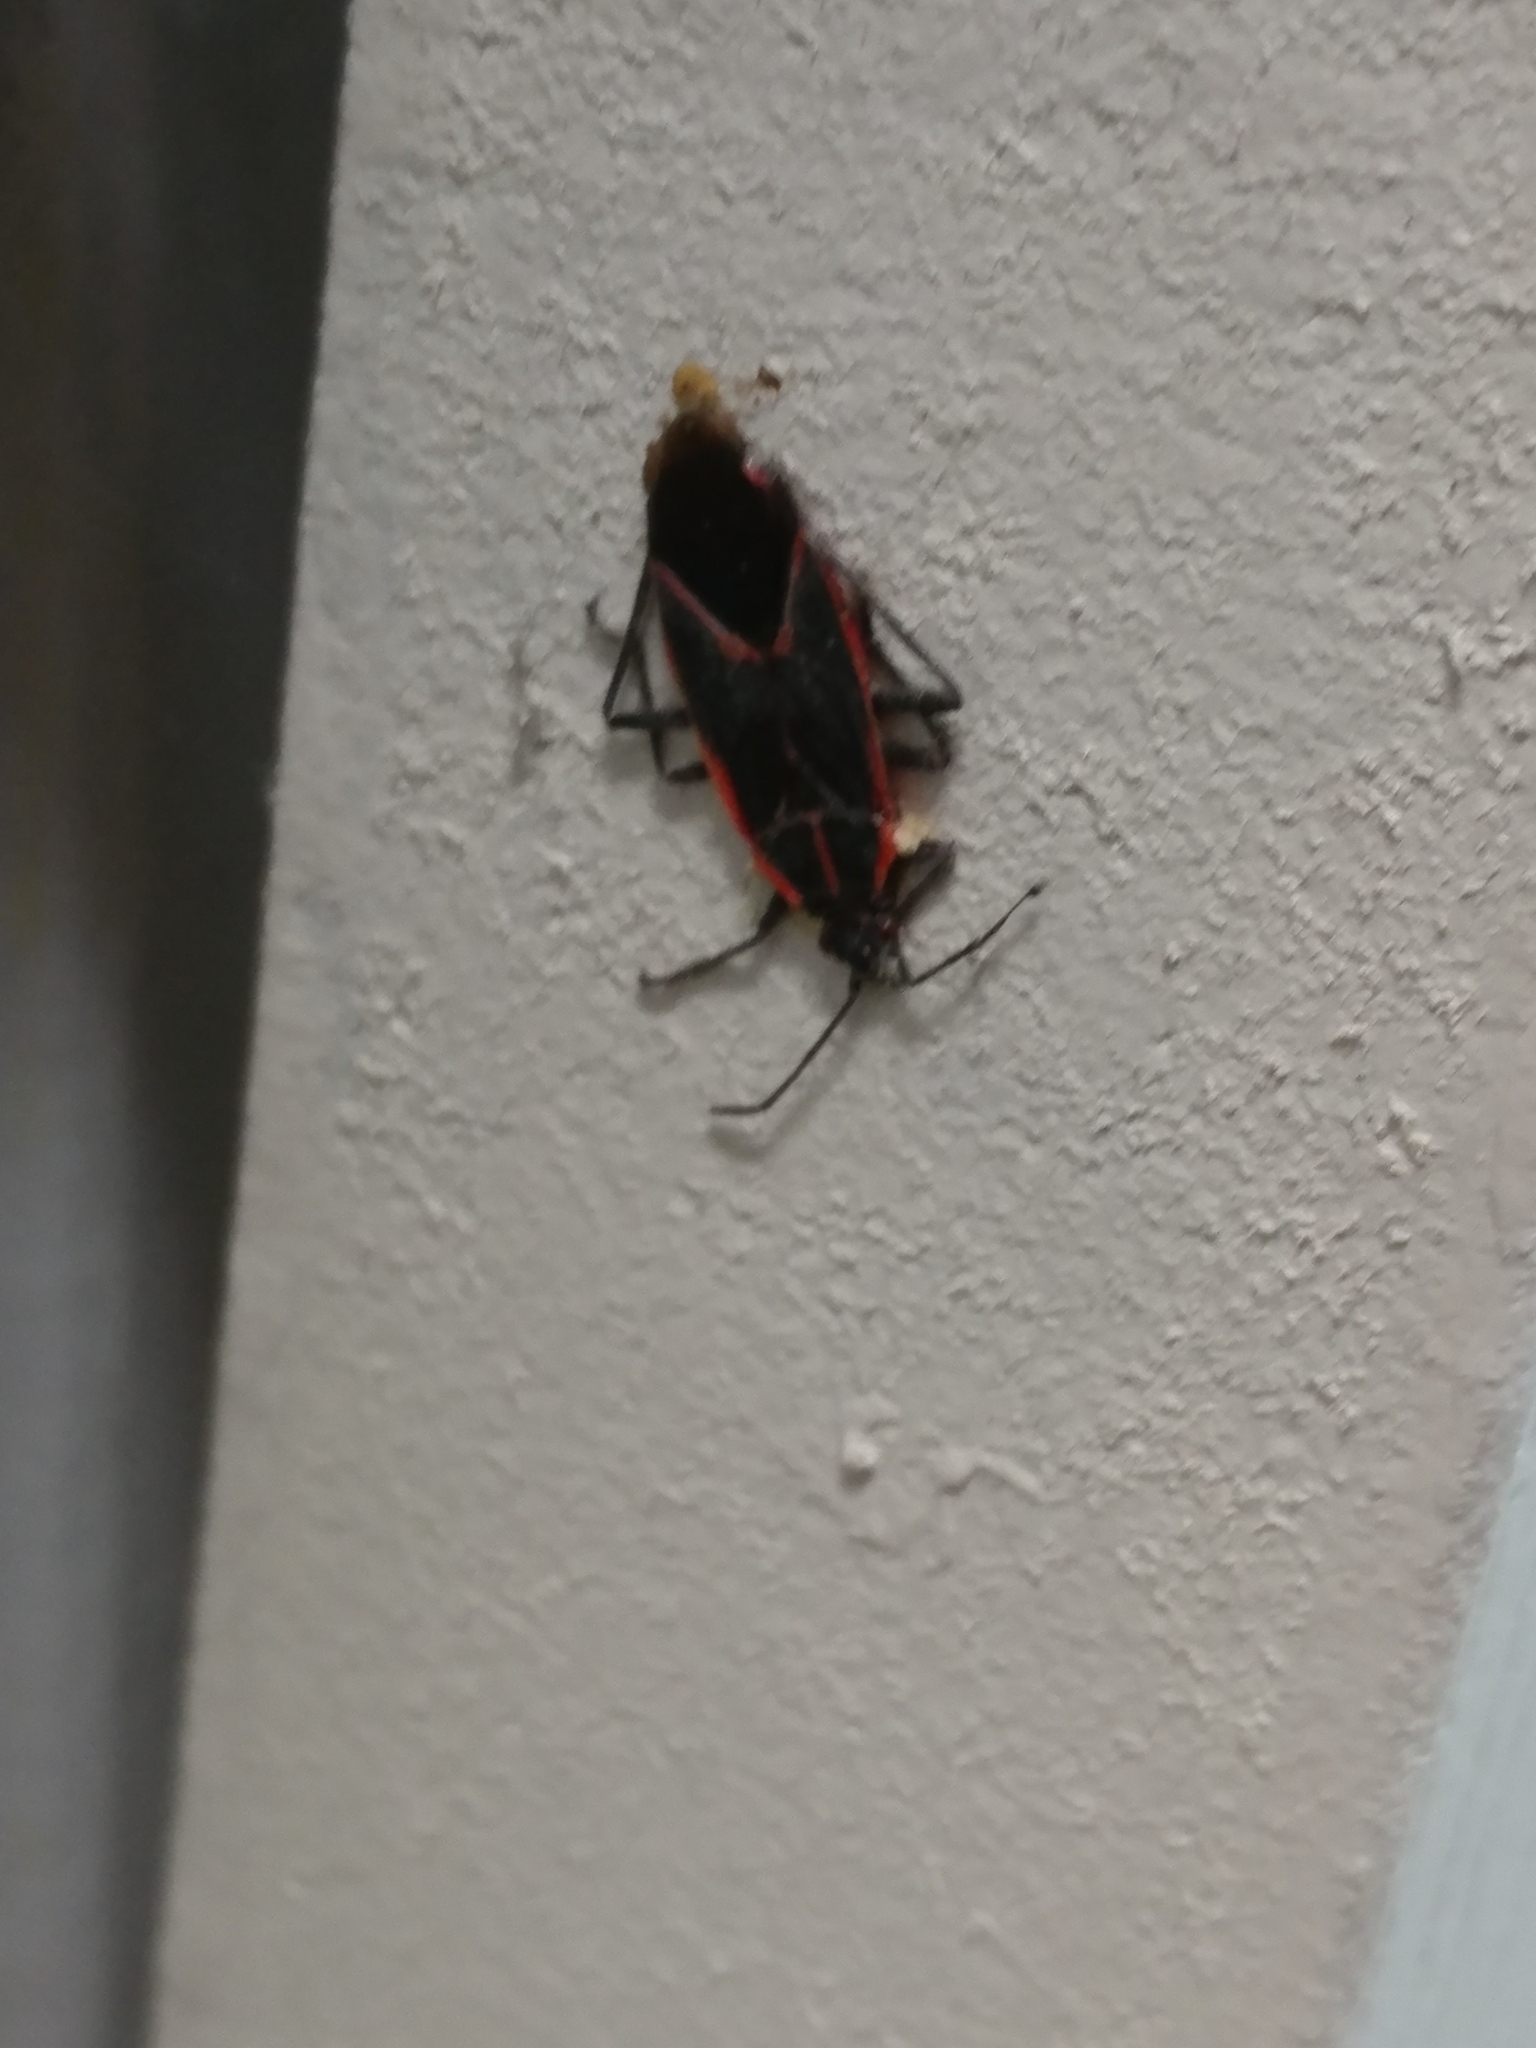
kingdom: Animalia
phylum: Arthropoda
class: Insecta
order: Hemiptera
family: Rhopalidae
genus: Boisea
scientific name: Boisea trivittata
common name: Boxelder bug
